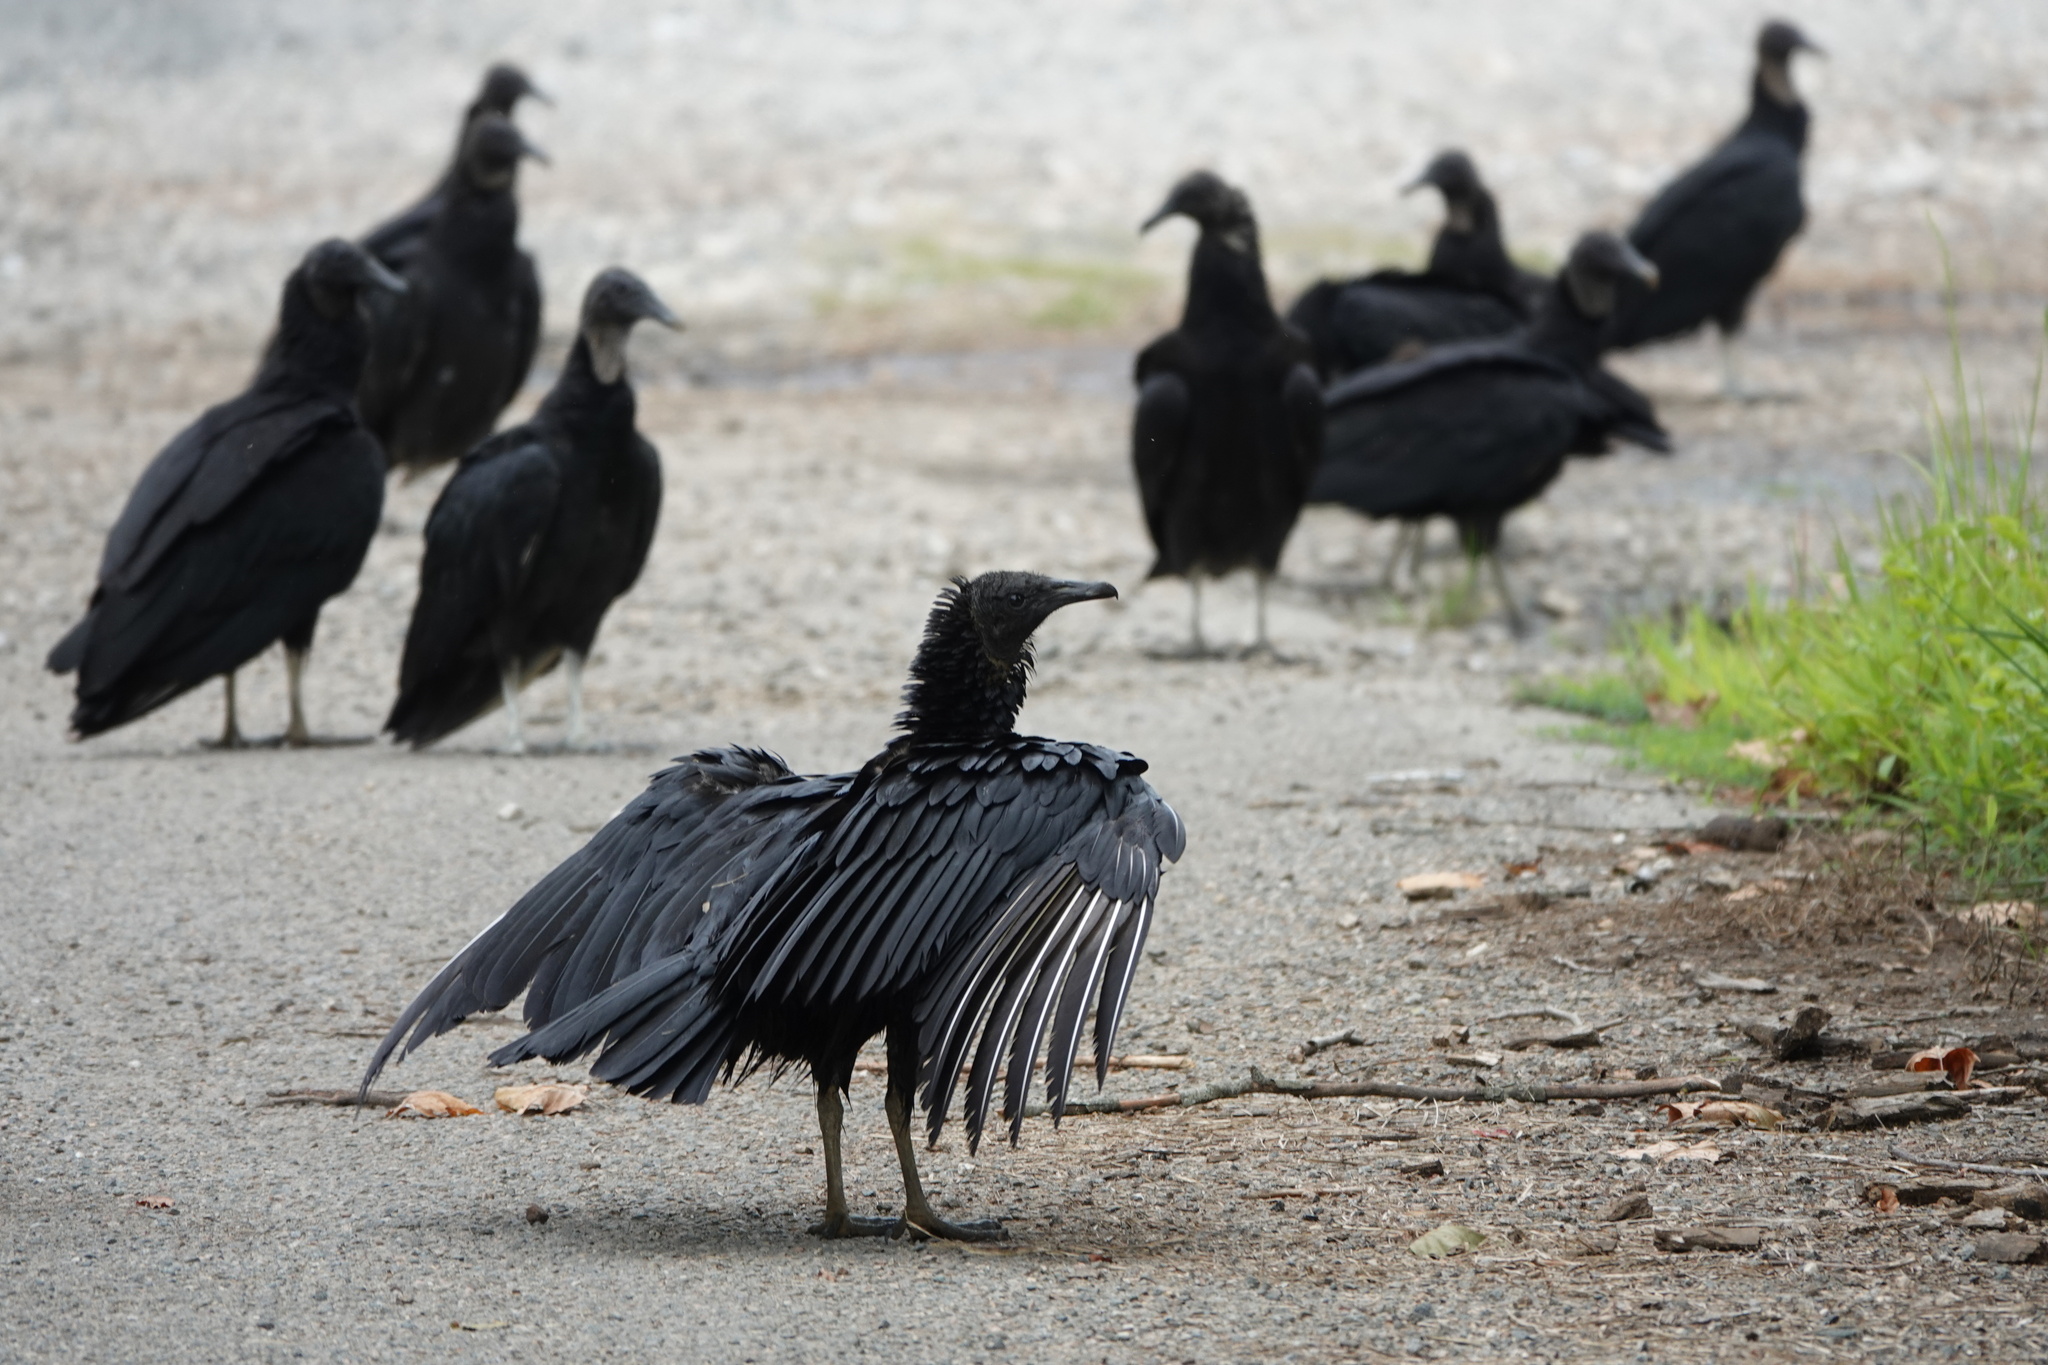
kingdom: Animalia
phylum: Chordata
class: Aves
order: Accipitriformes
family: Cathartidae
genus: Coragyps
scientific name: Coragyps atratus
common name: Black vulture
